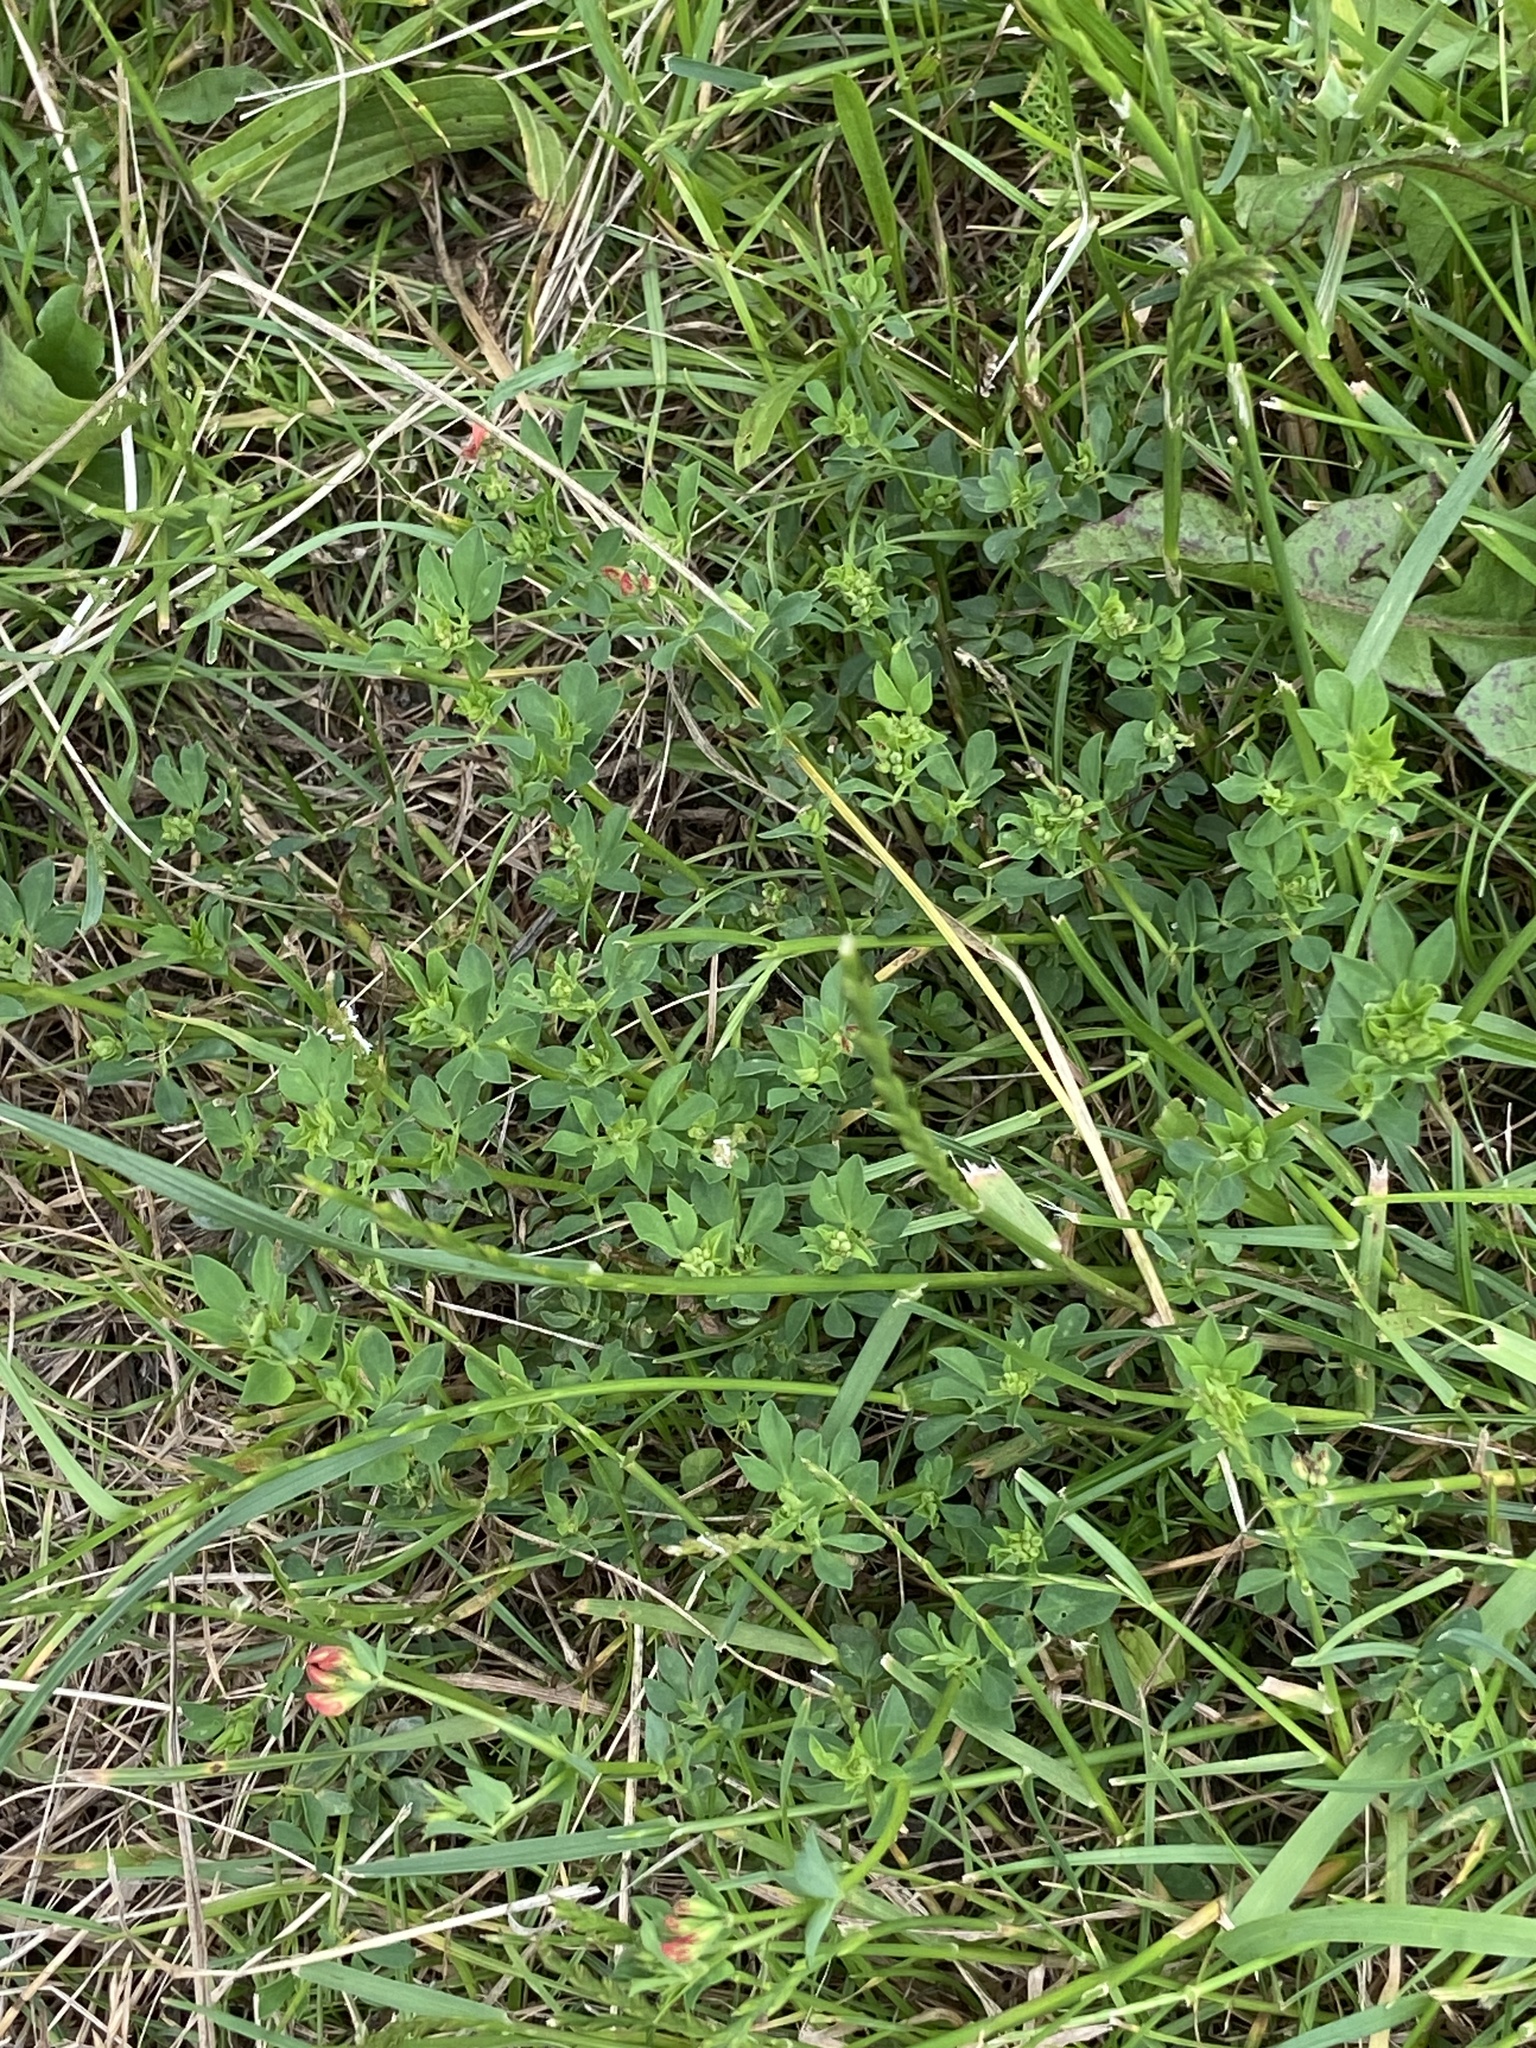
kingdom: Plantae
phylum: Tracheophyta
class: Magnoliopsida
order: Fabales
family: Fabaceae
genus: Lotus
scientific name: Lotus corniculatus
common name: Common bird's-foot-trefoil
